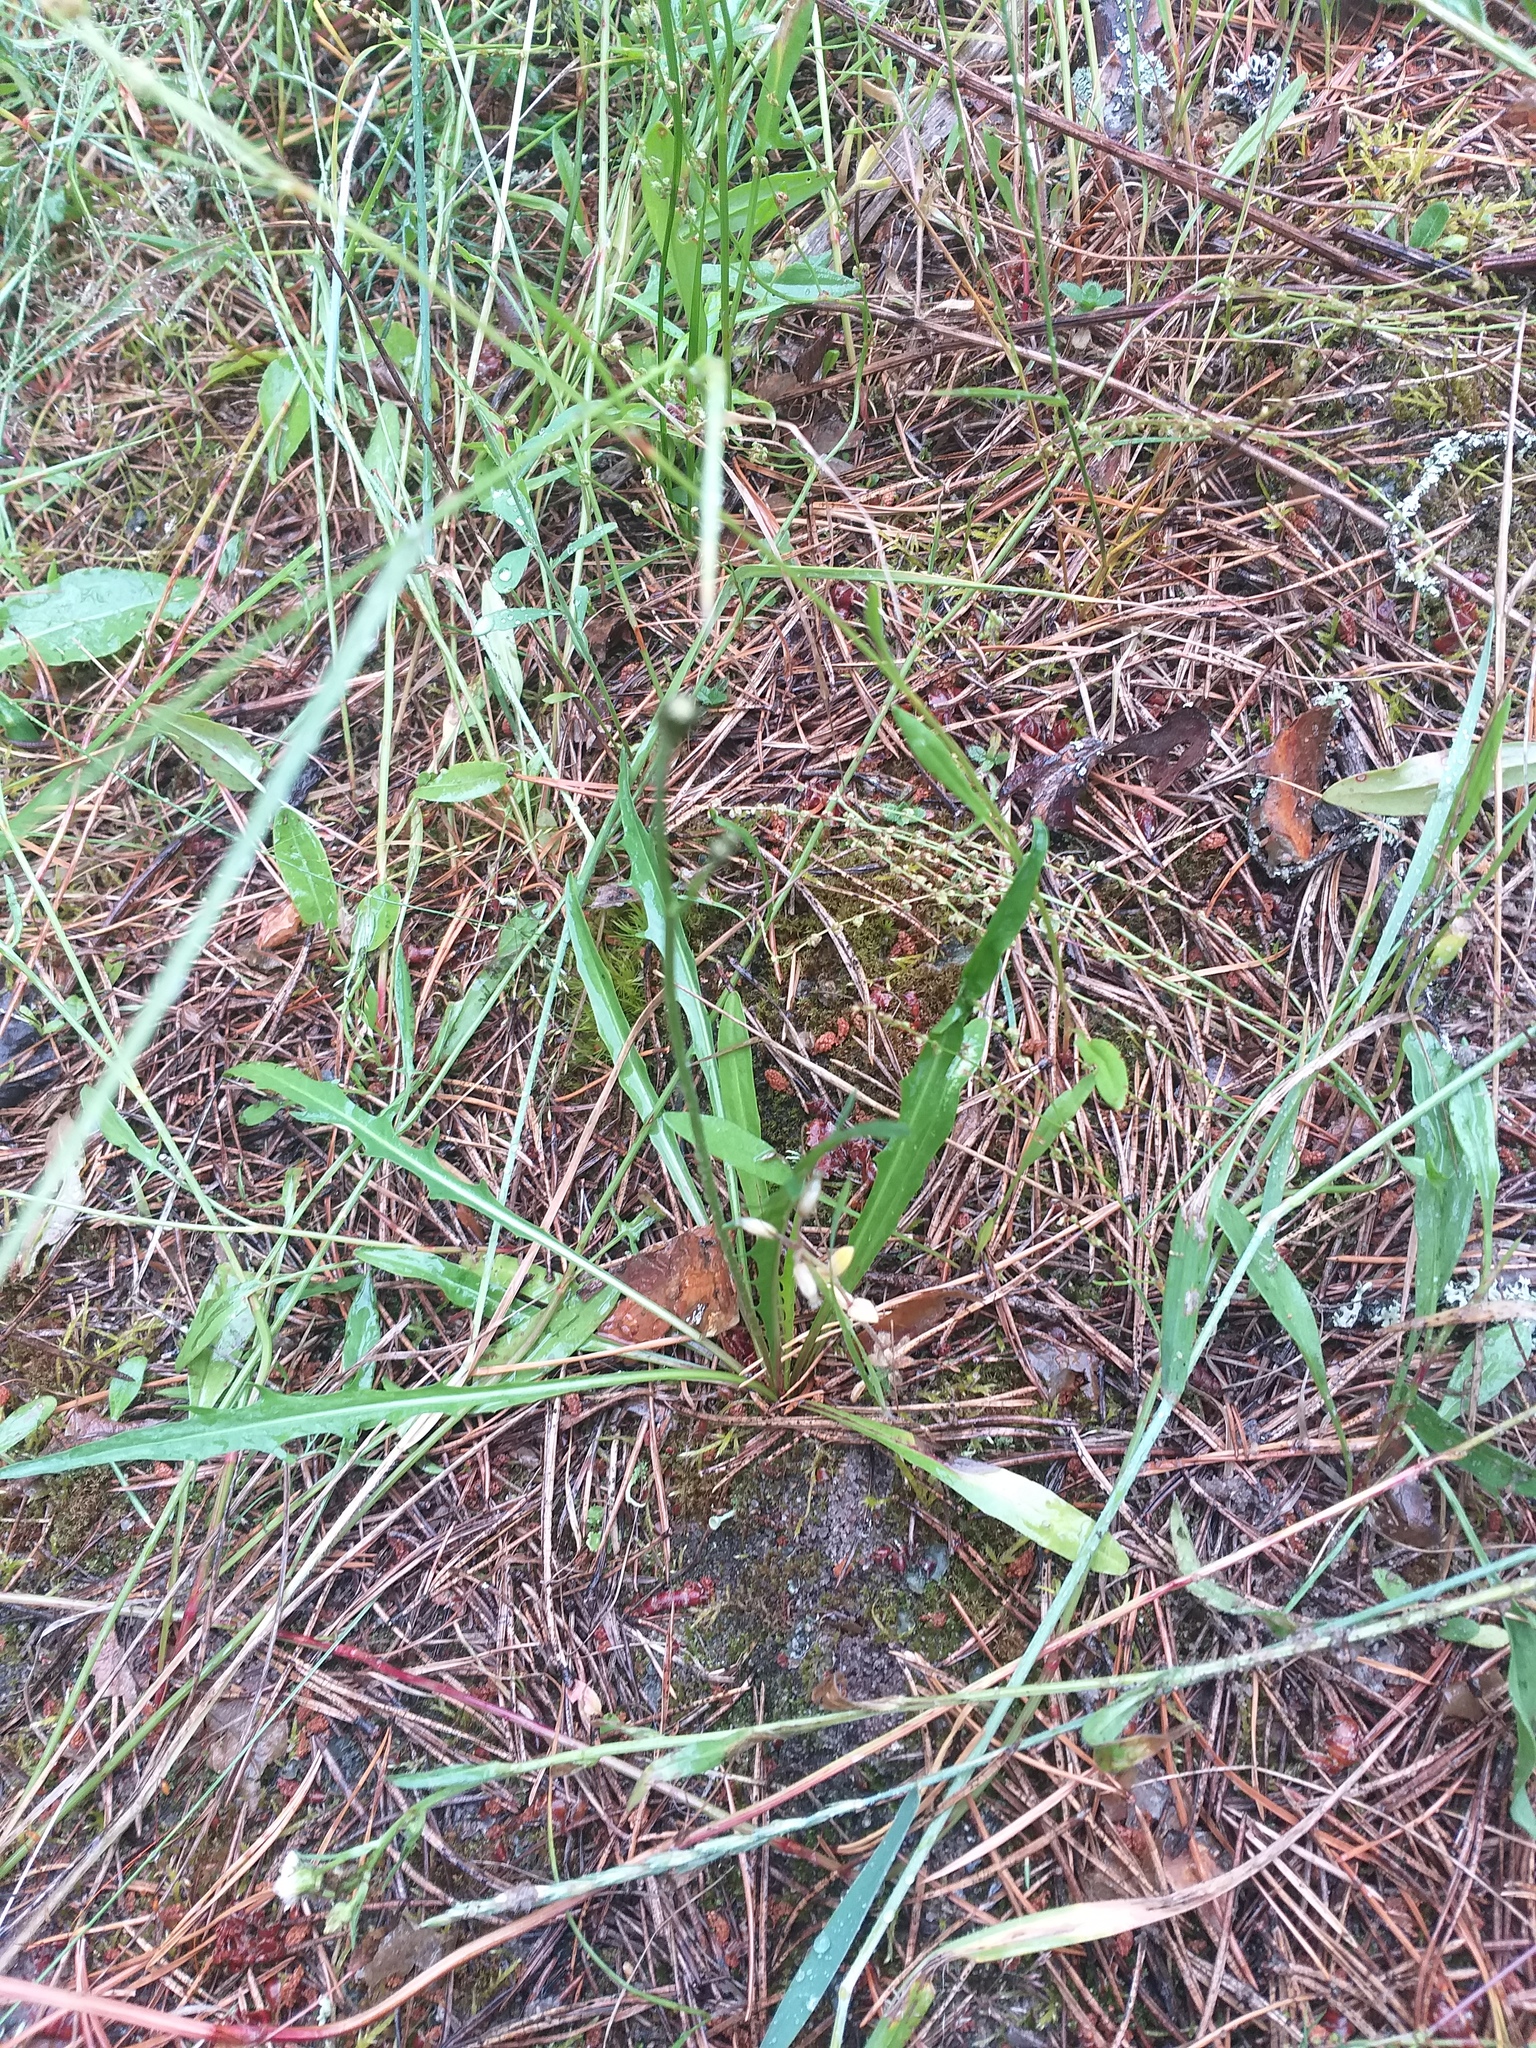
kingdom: Plantae
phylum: Tracheophyta
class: Magnoliopsida
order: Asterales
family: Asteraceae
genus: Scorzoneroides
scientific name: Scorzoneroides autumnalis
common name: Autumn hawkbit
